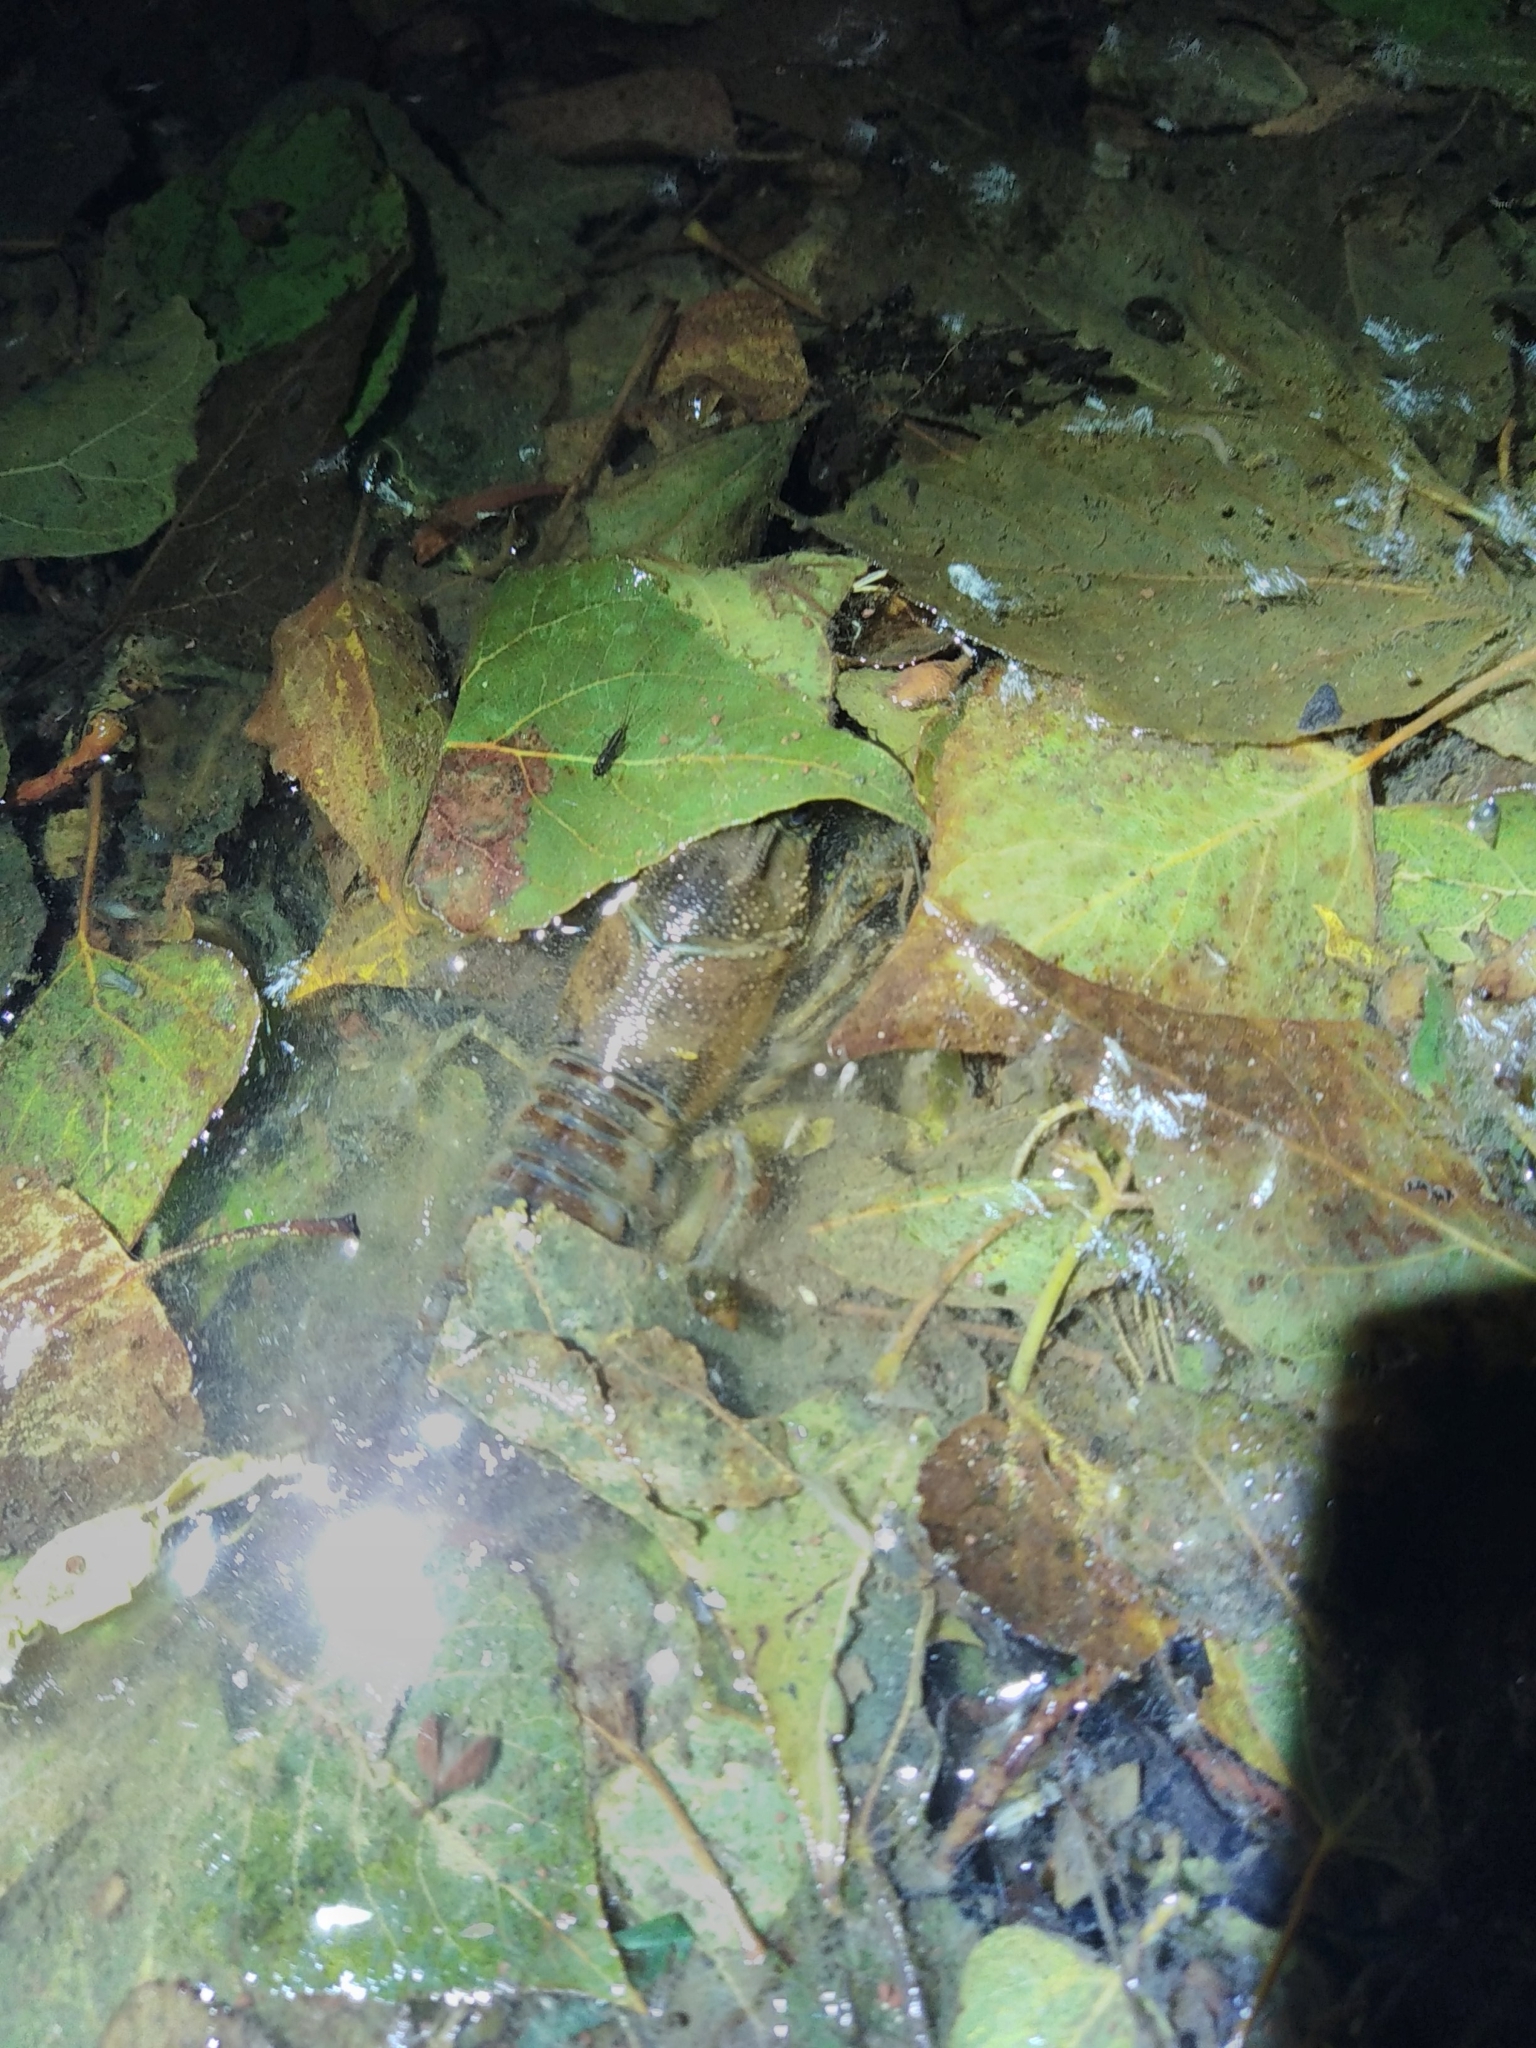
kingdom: Animalia
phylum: Arthropoda
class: Malacostraca
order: Decapoda
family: Cambaridae
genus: Faxonius
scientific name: Faxonius limosus
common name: American crayfish
